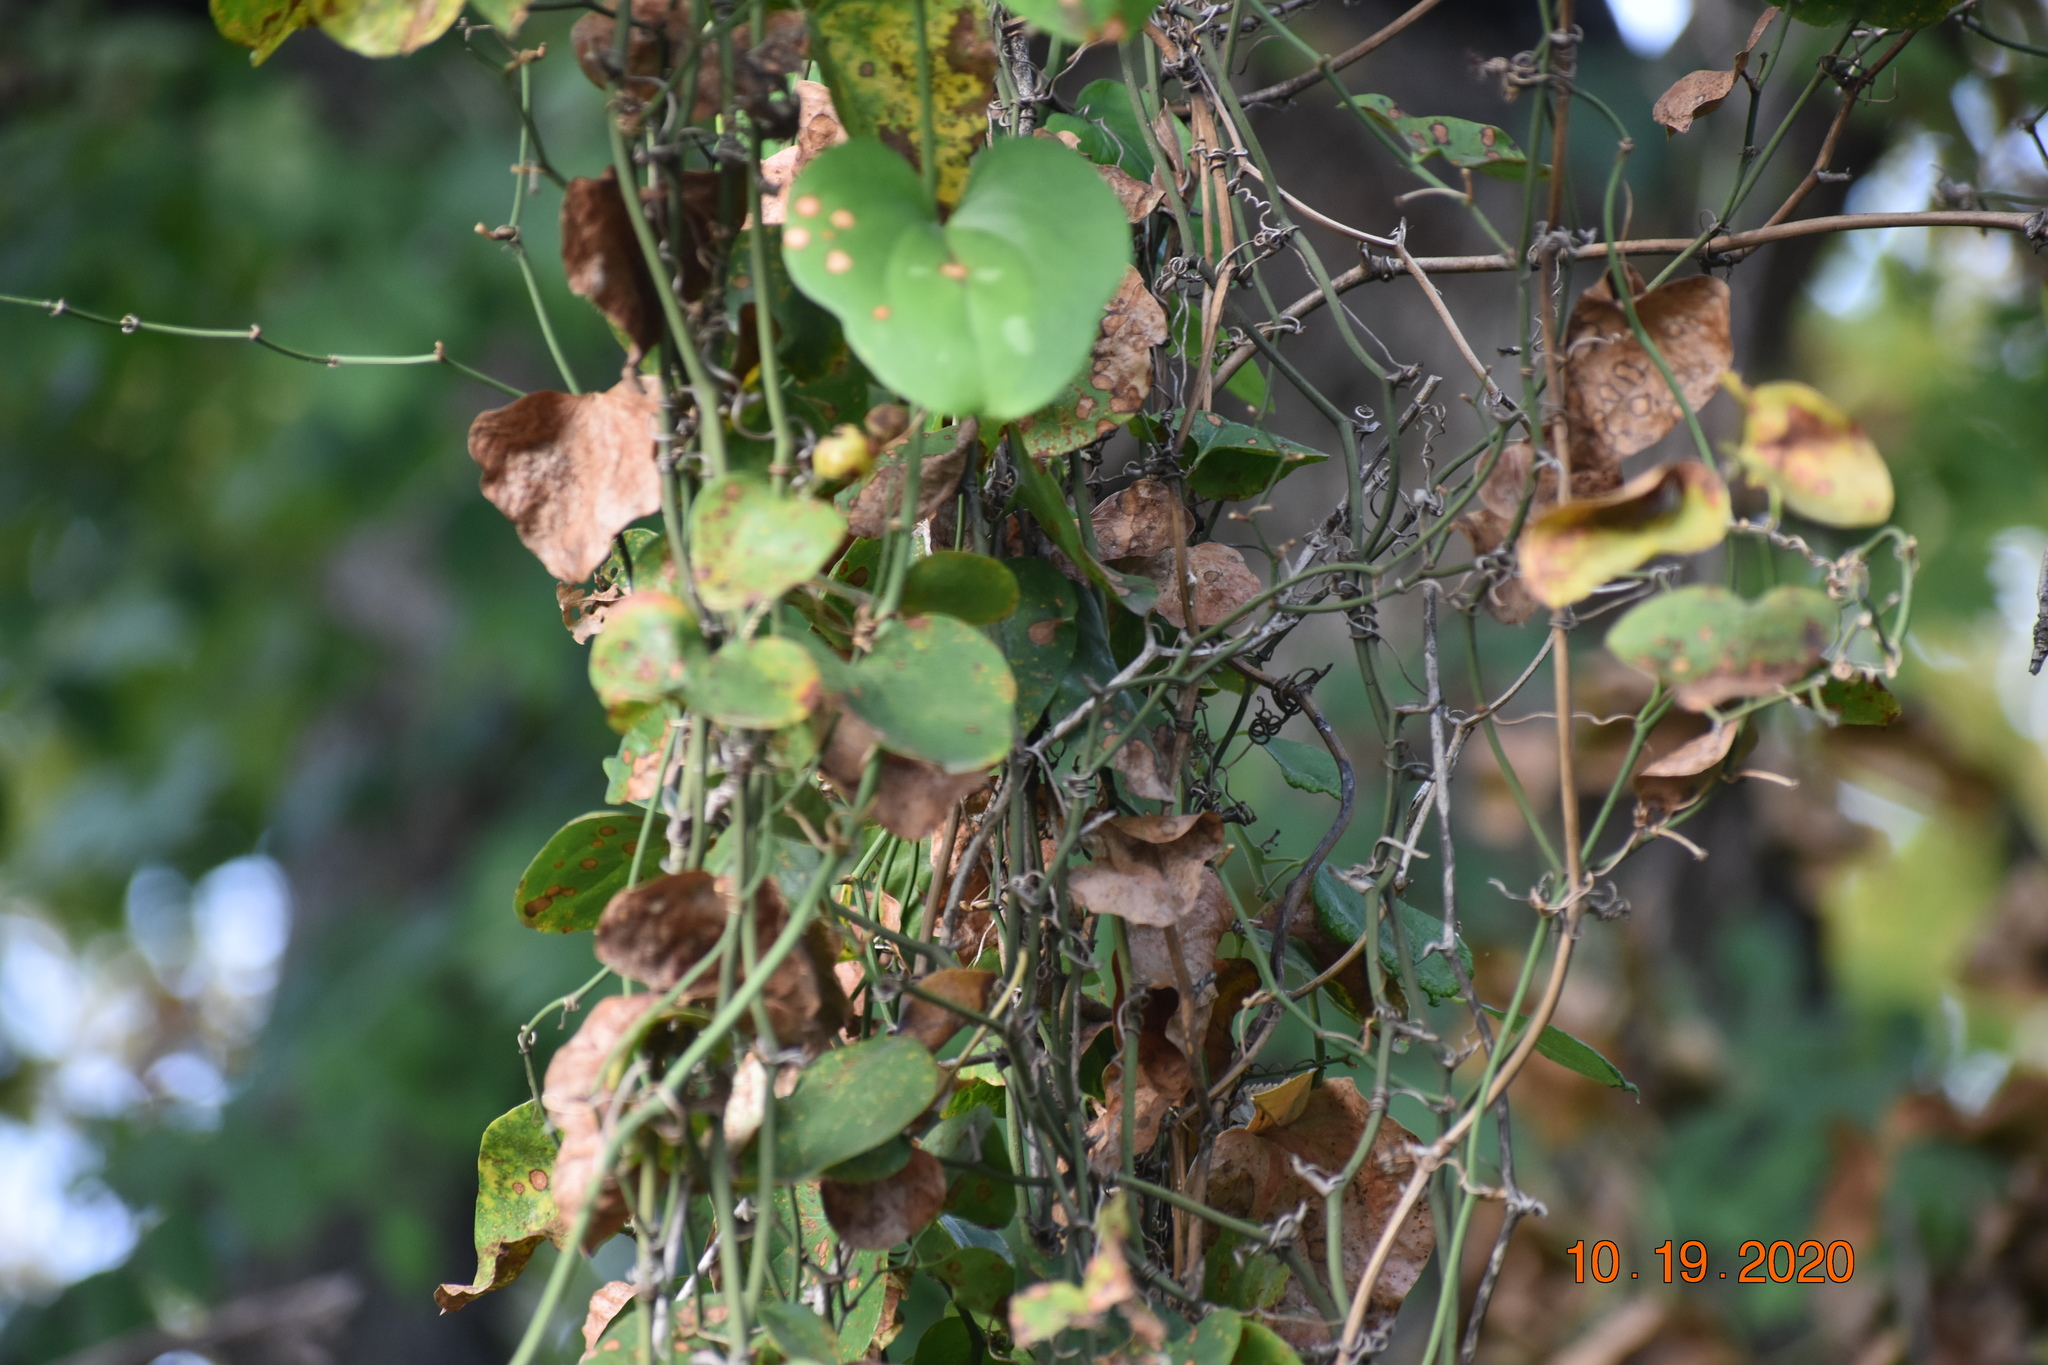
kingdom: Plantae
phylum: Tracheophyta
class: Magnoliopsida
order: Ranunculales
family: Menispermaceae
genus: Cocculus
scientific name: Cocculus carolinus
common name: Carolina moonseed
